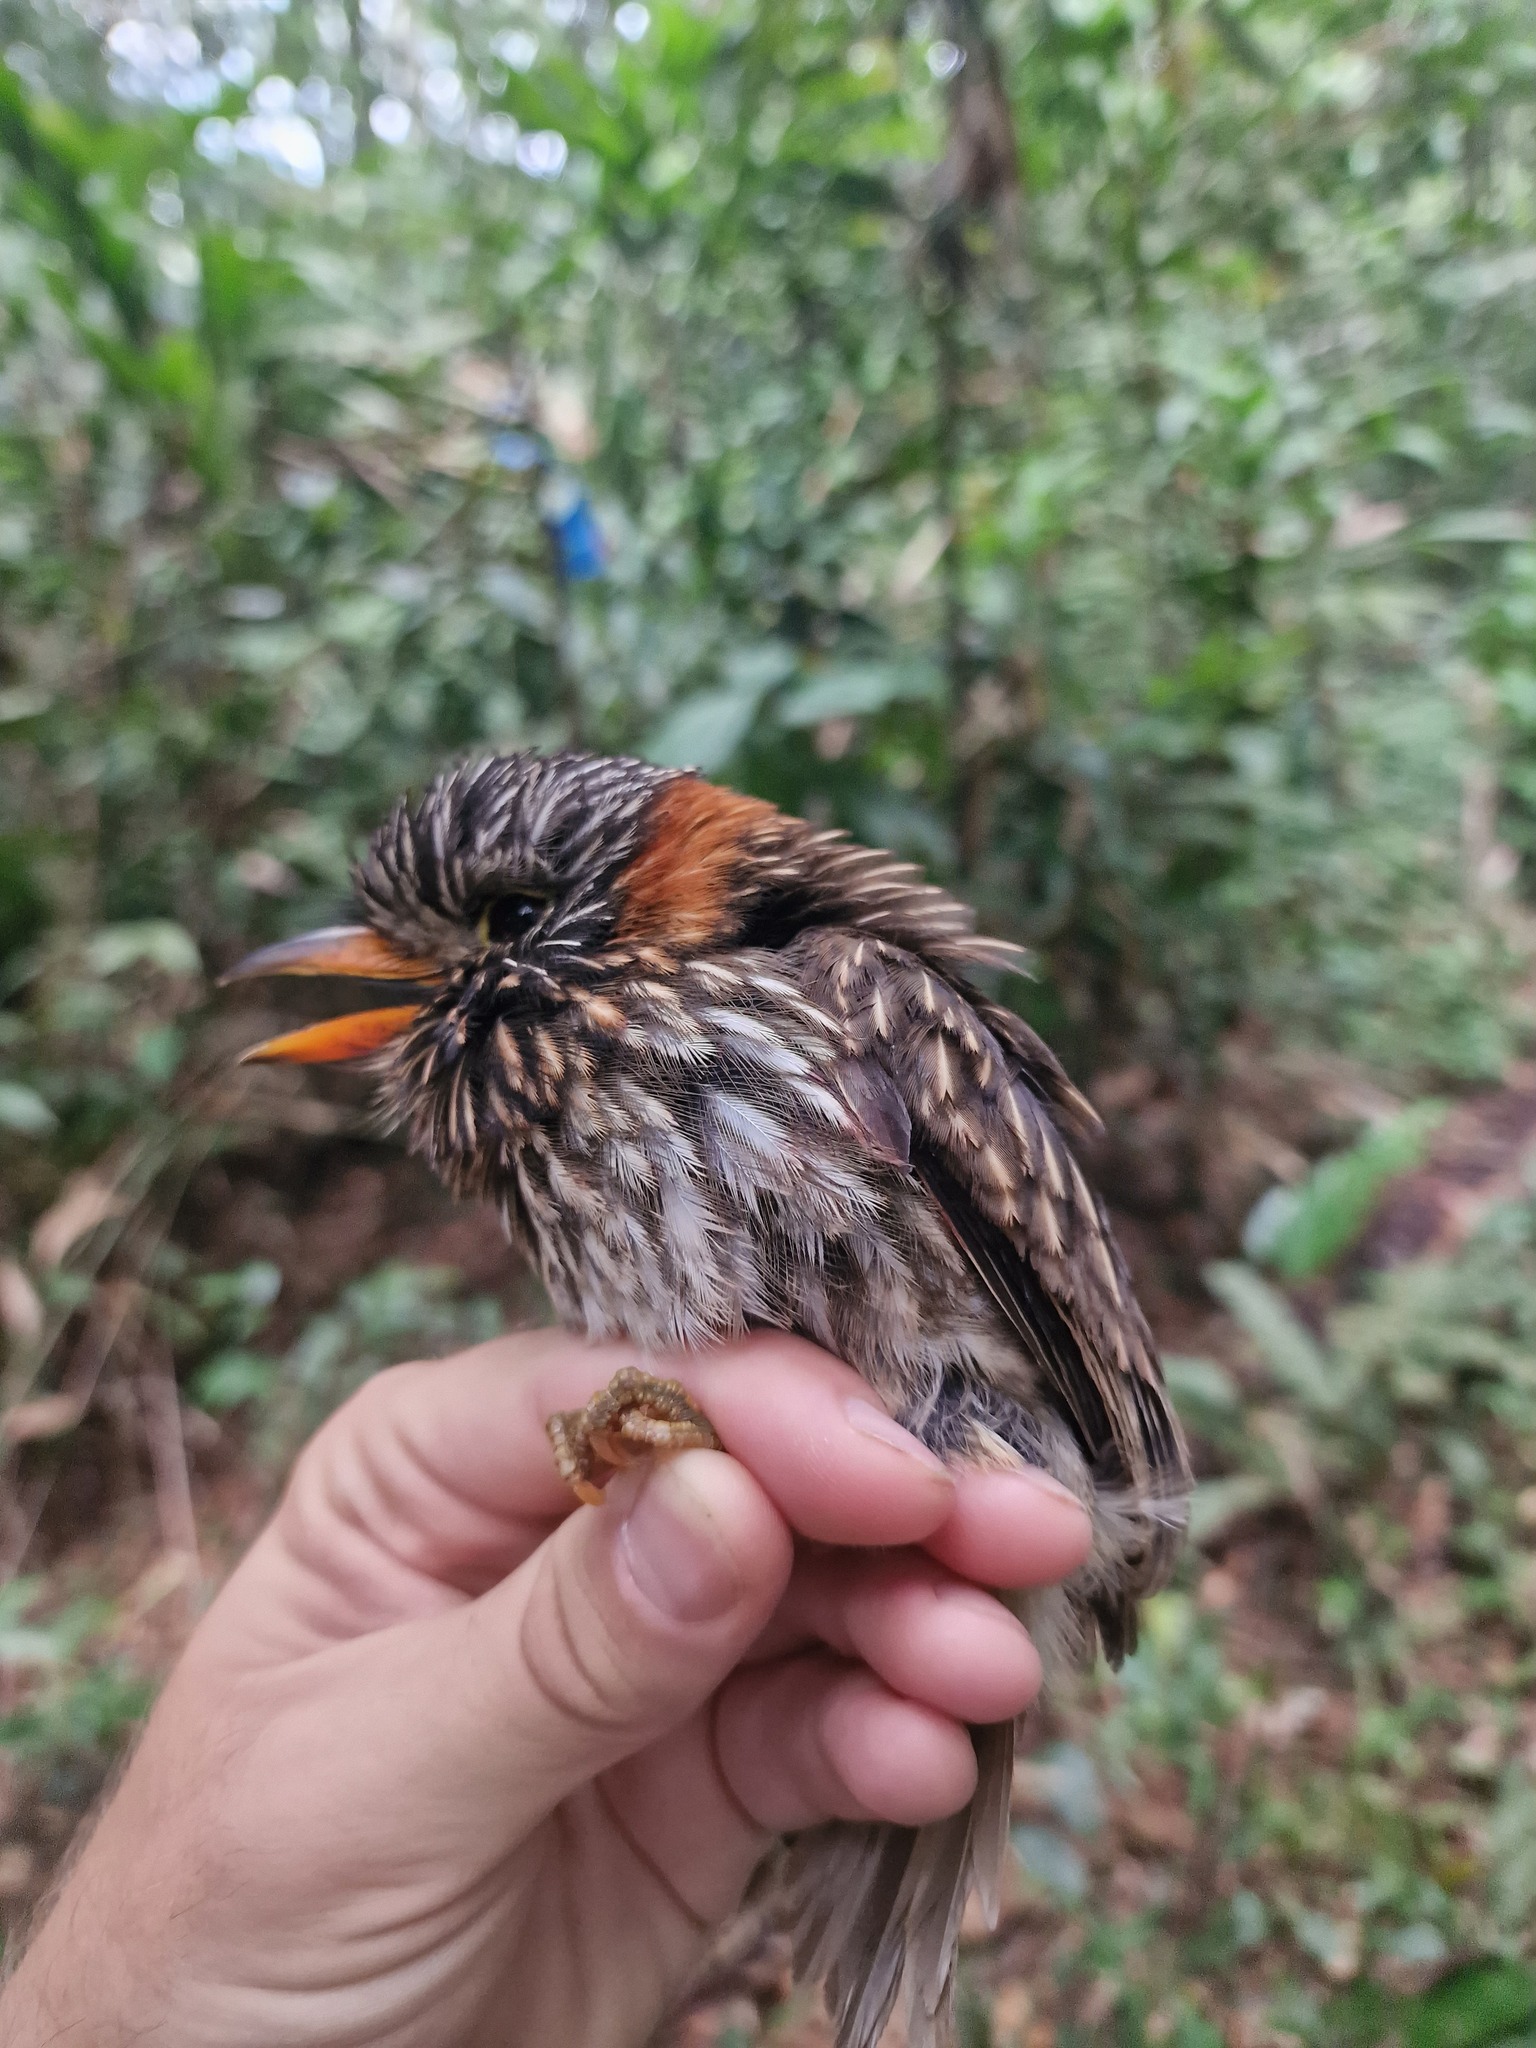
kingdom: Animalia
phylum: Chordata
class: Aves
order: Piciformes
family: Bucconidae
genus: Malacoptila
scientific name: Malacoptila semicincta
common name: Semicollared puffbird
